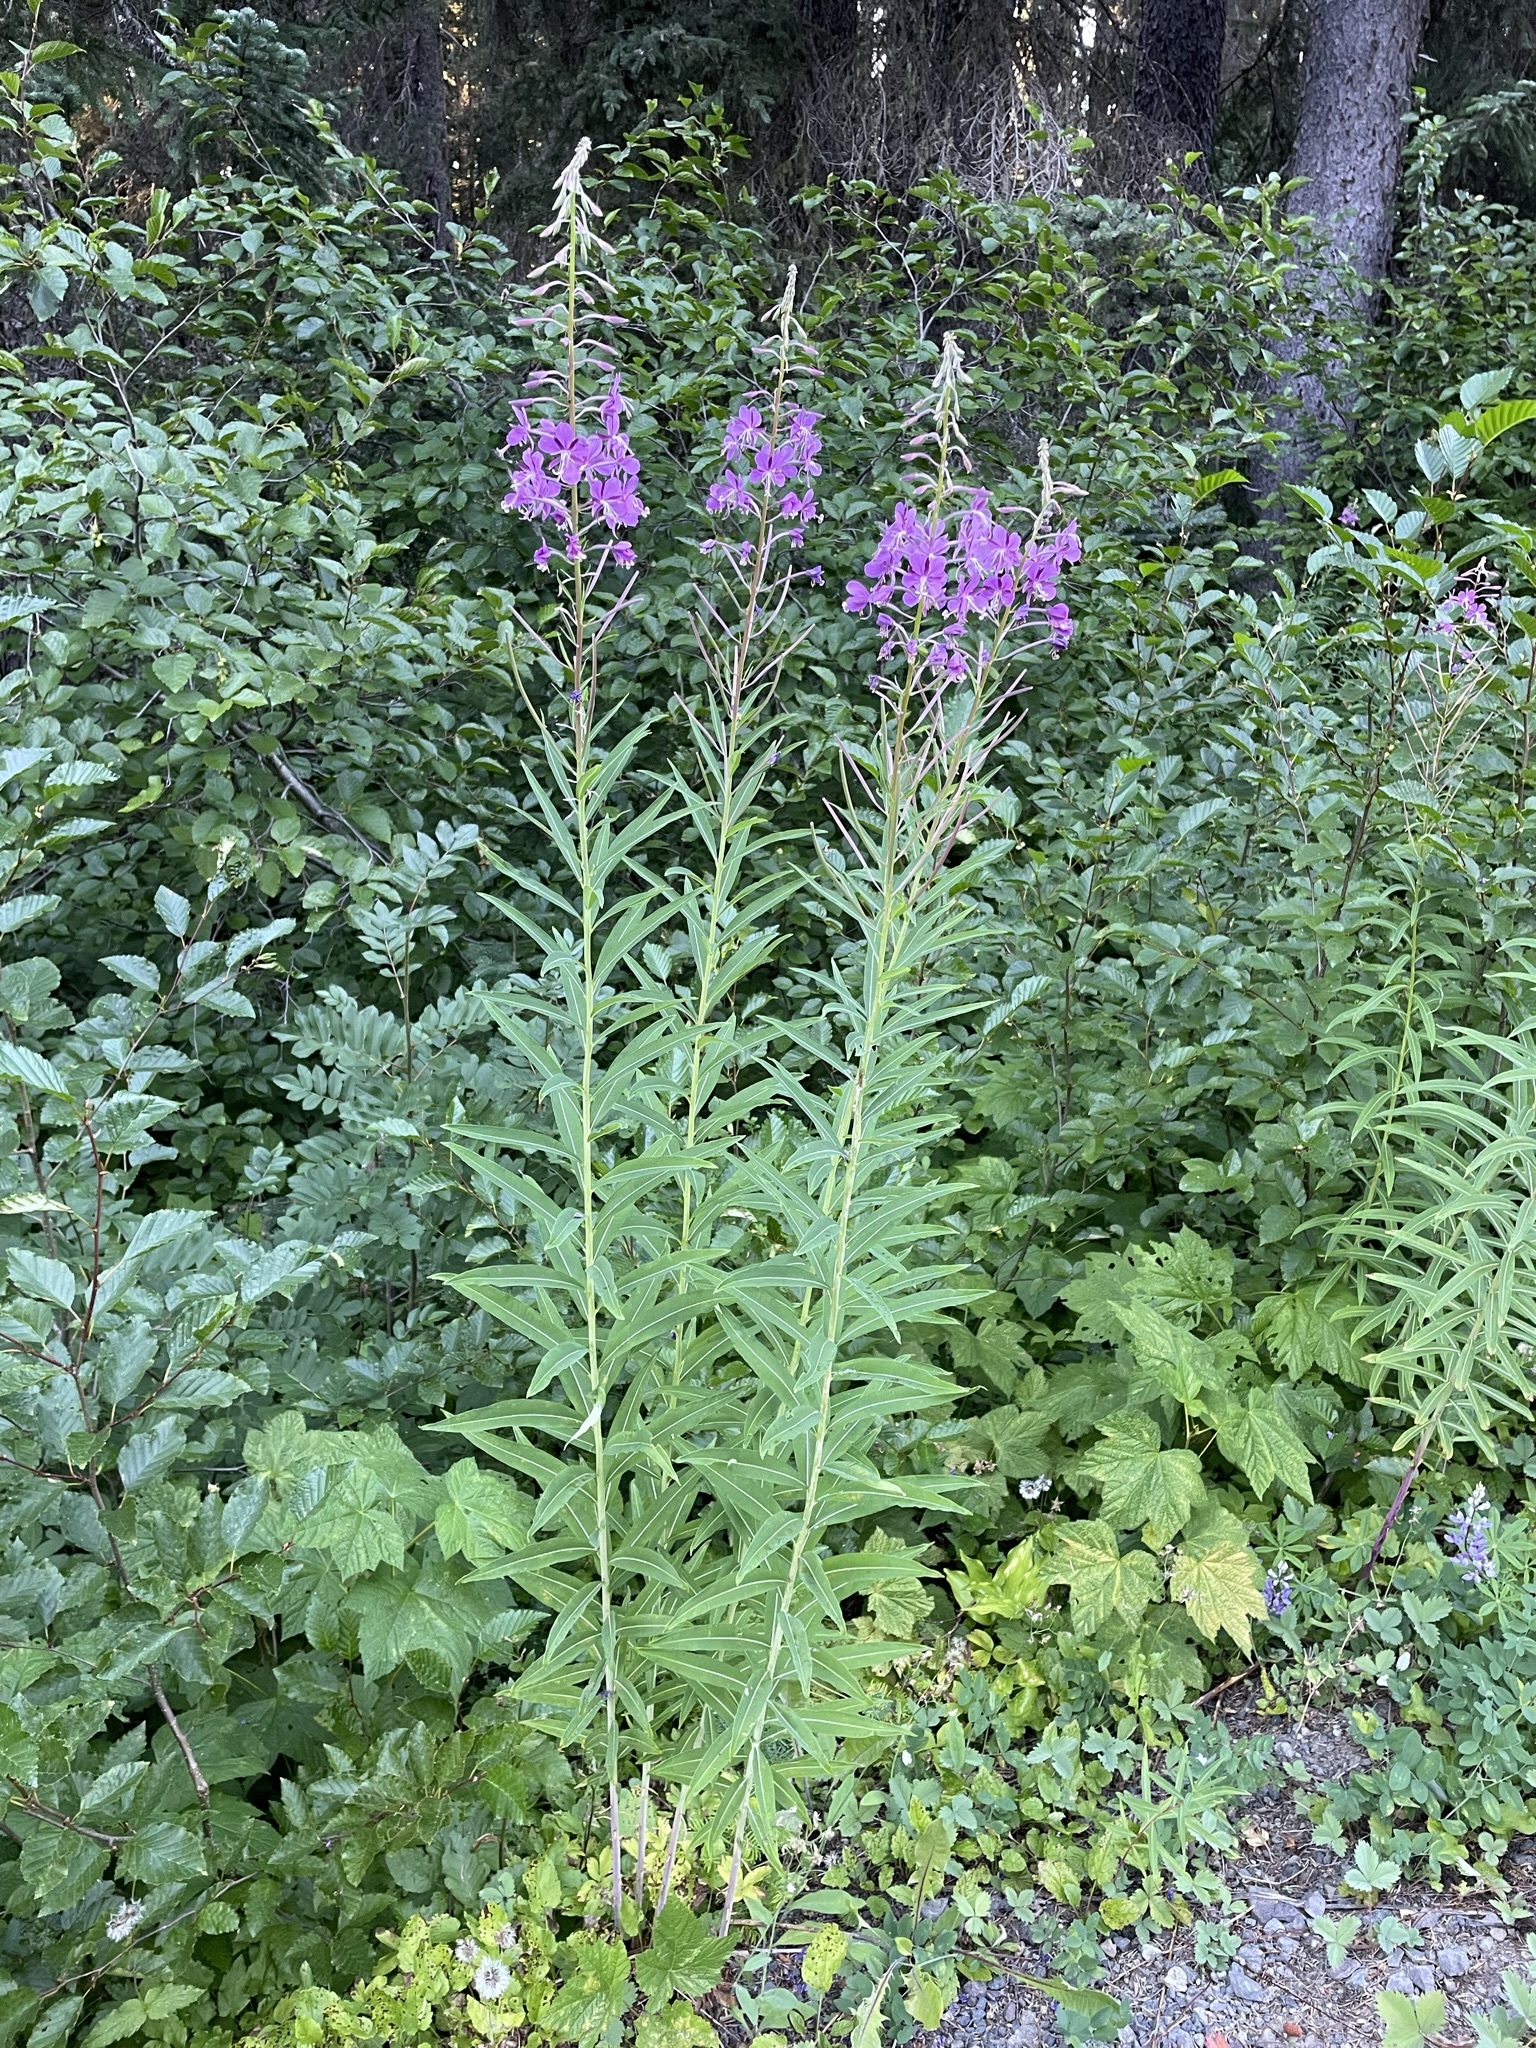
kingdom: Plantae
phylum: Tracheophyta
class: Magnoliopsida
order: Myrtales
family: Onagraceae
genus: Chamaenerion
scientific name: Chamaenerion angustifolium
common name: Fireweed
